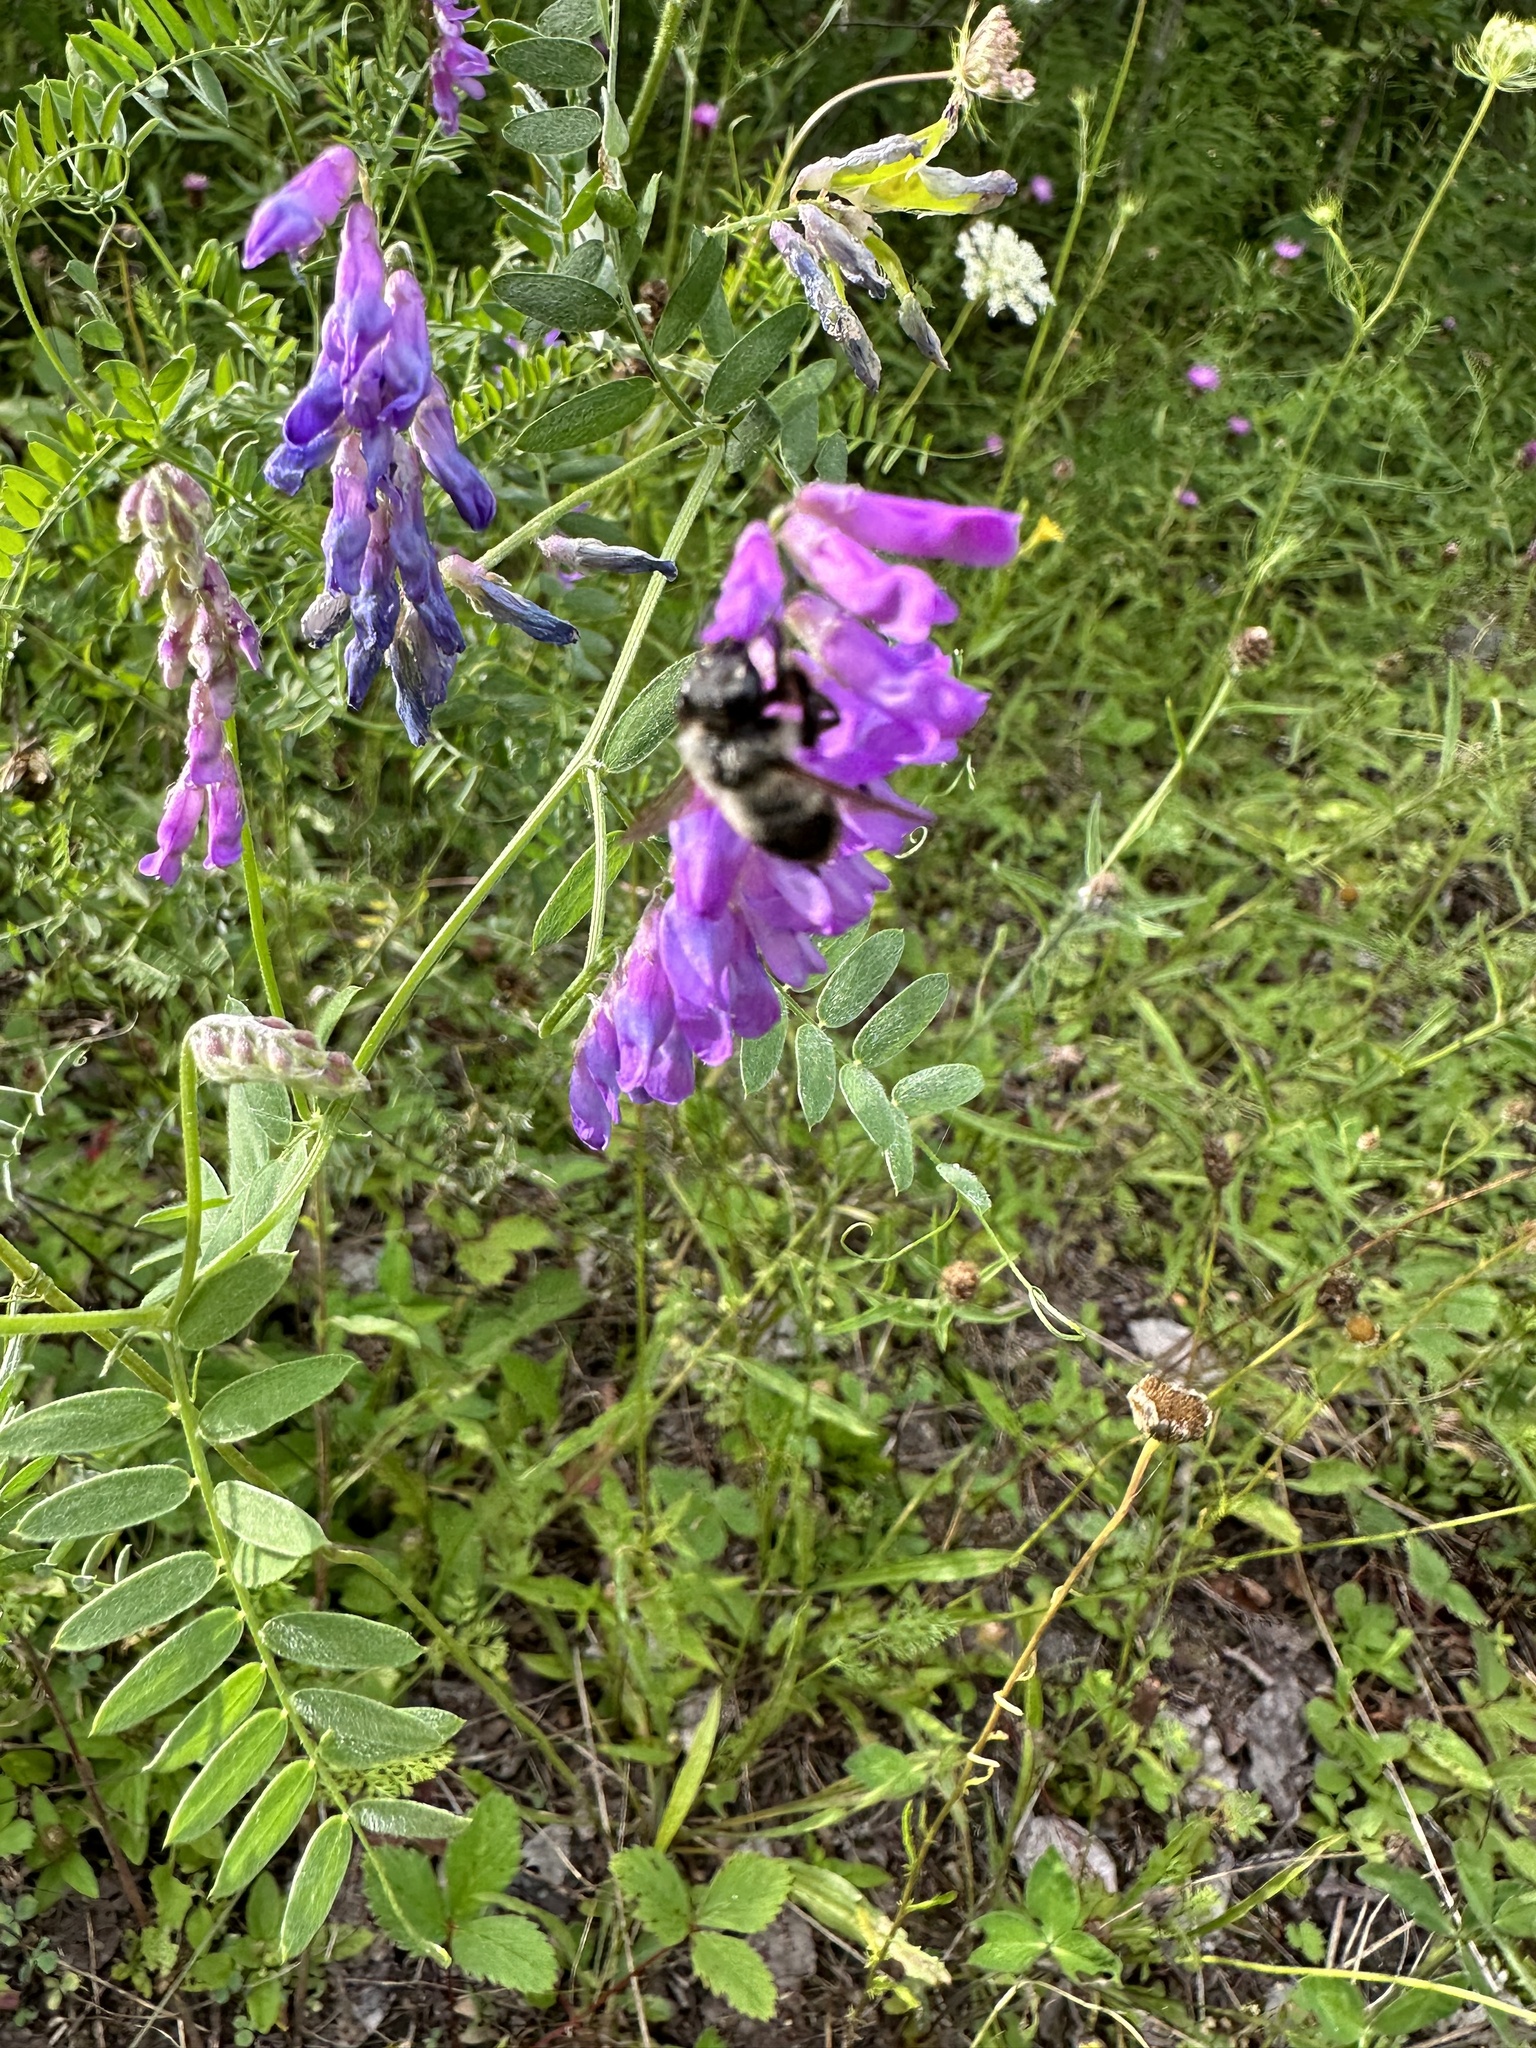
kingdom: Animalia
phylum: Arthropoda
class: Insecta
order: Hymenoptera
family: Megachilidae
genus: Megachile
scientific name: Megachile melanophaea
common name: Black-and-gray leafcutter bee
